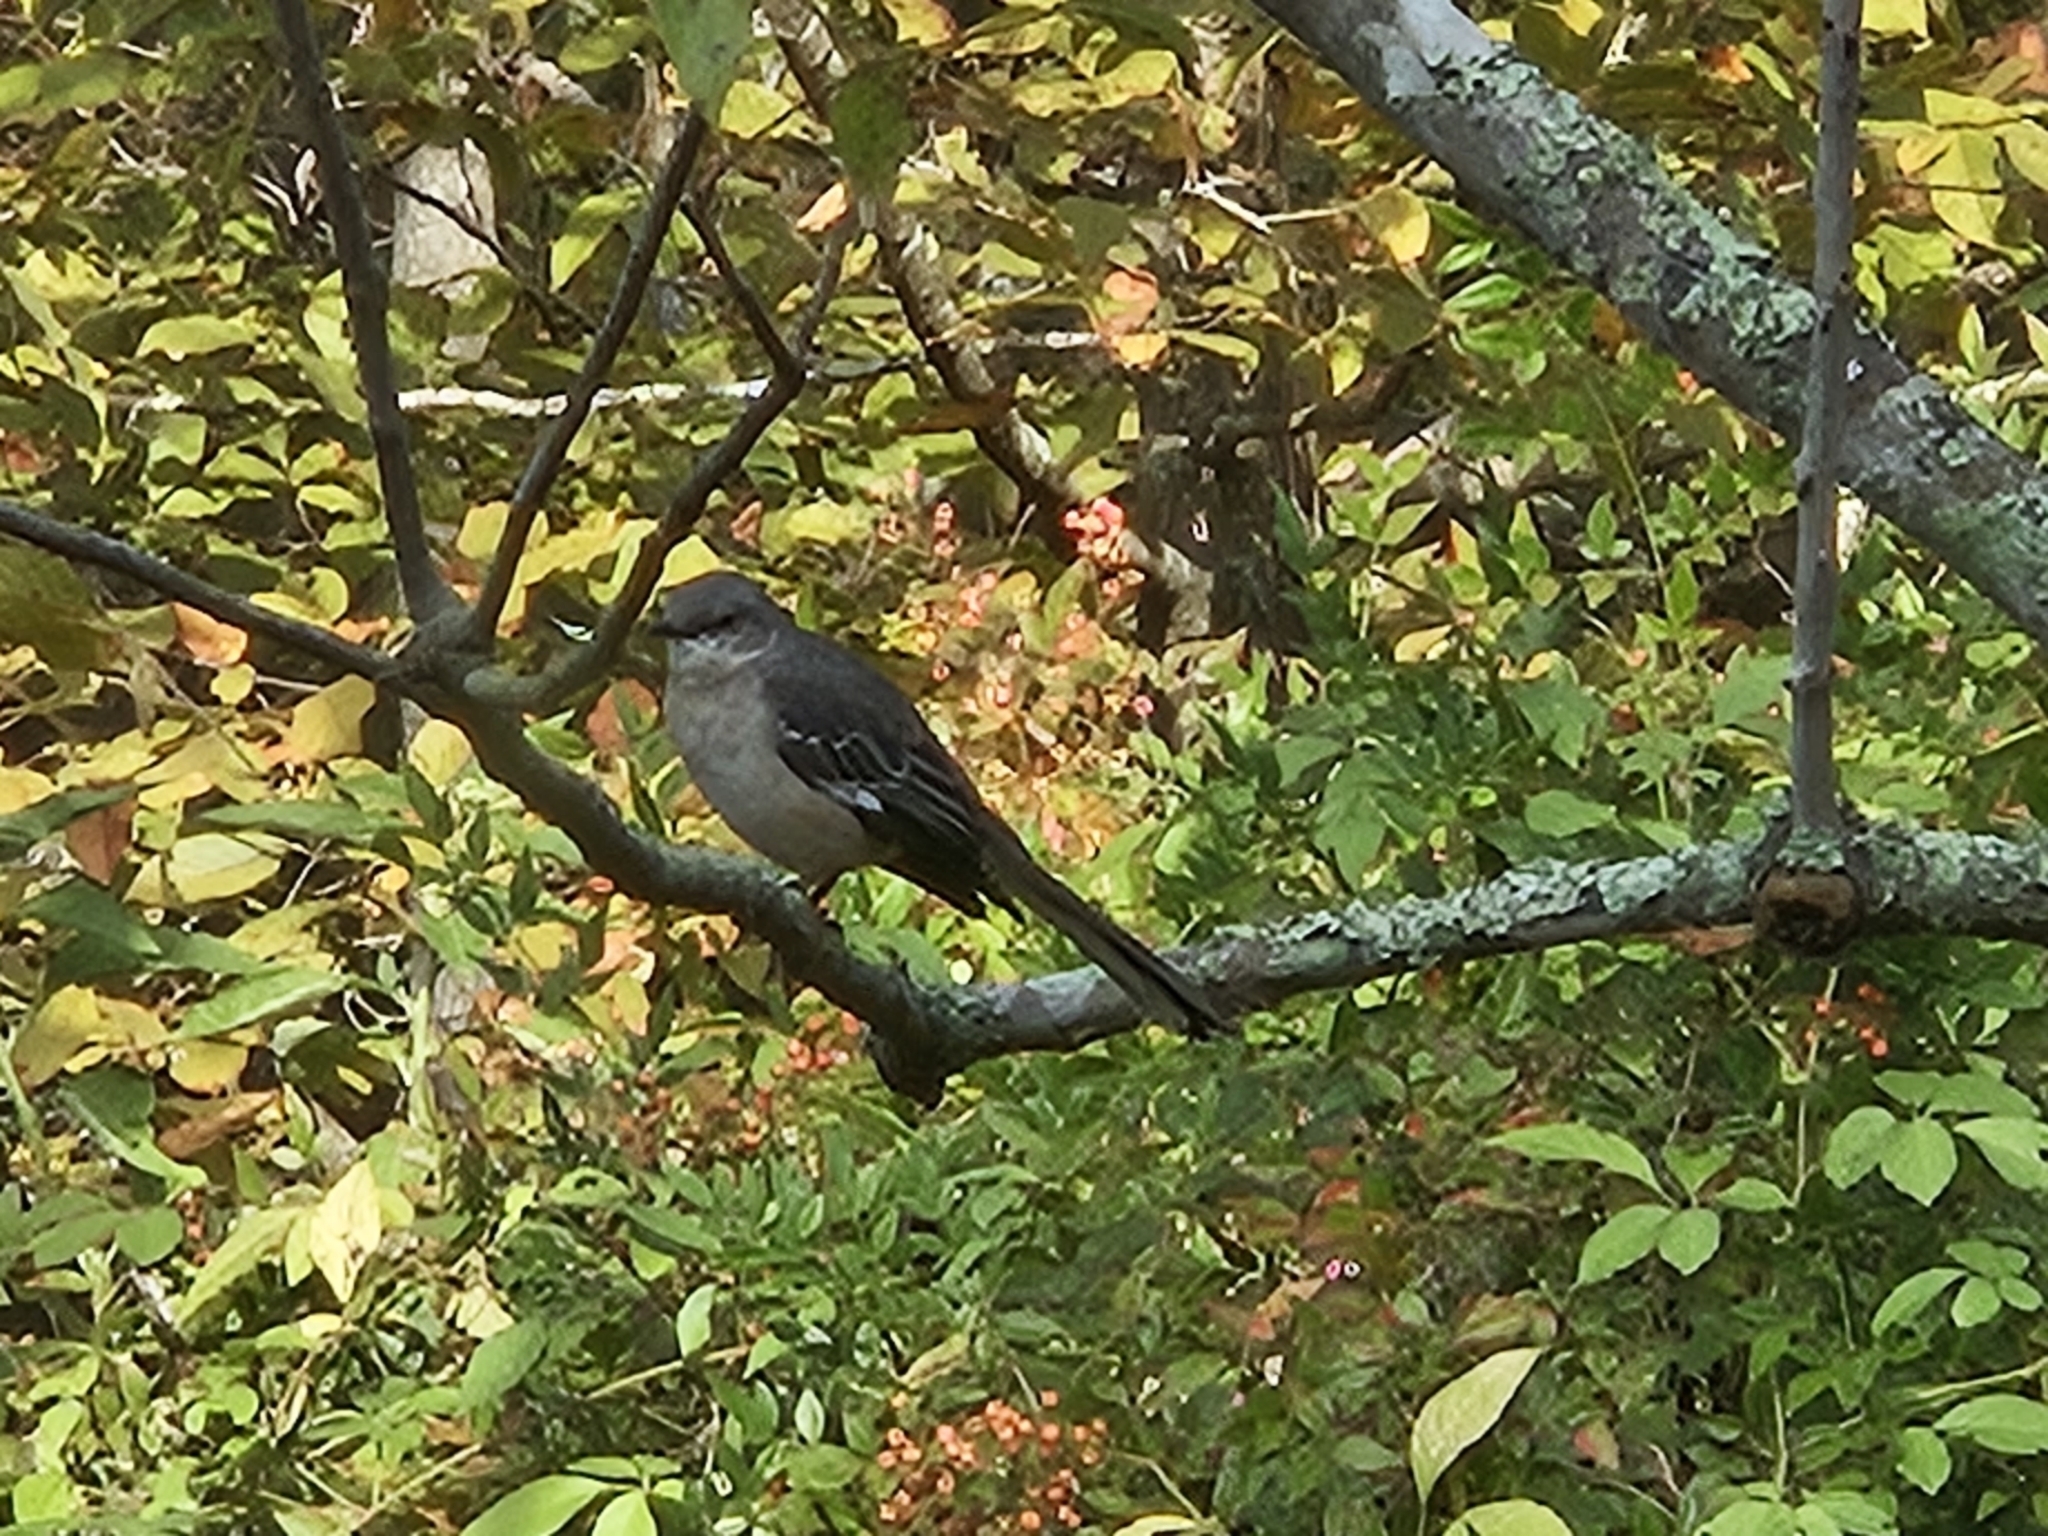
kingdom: Animalia
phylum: Chordata
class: Aves
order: Passeriformes
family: Mimidae
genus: Mimus
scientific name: Mimus polyglottos
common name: Northern mockingbird
